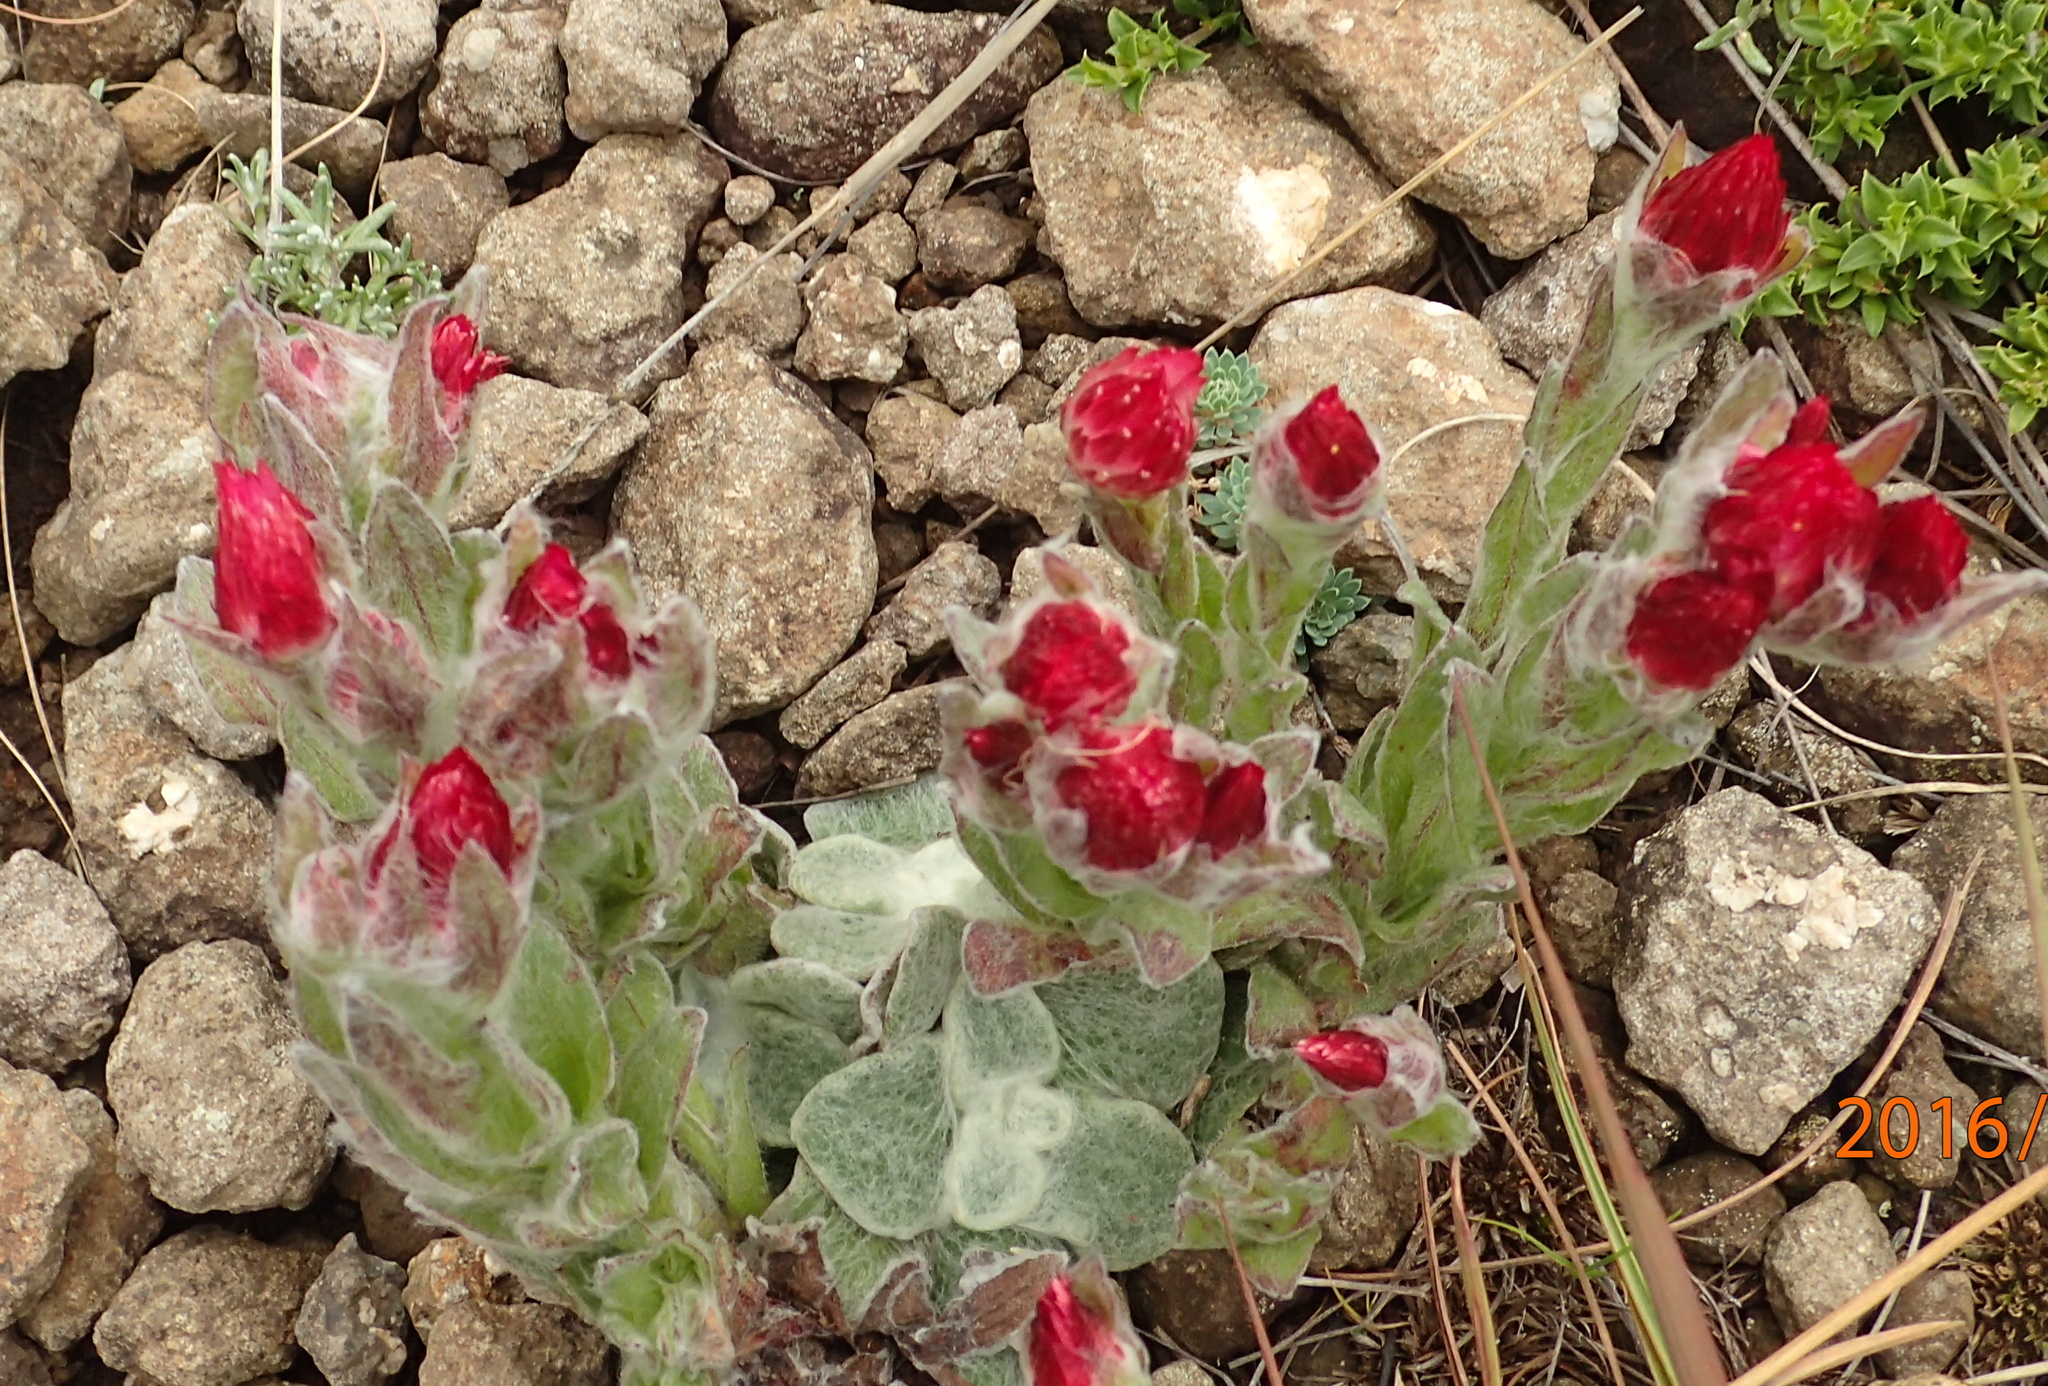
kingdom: Plantae
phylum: Tracheophyta
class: Magnoliopsida
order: Asterales
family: Asteraceae
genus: Helichrysum
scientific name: Helichrysum adenocarpum
